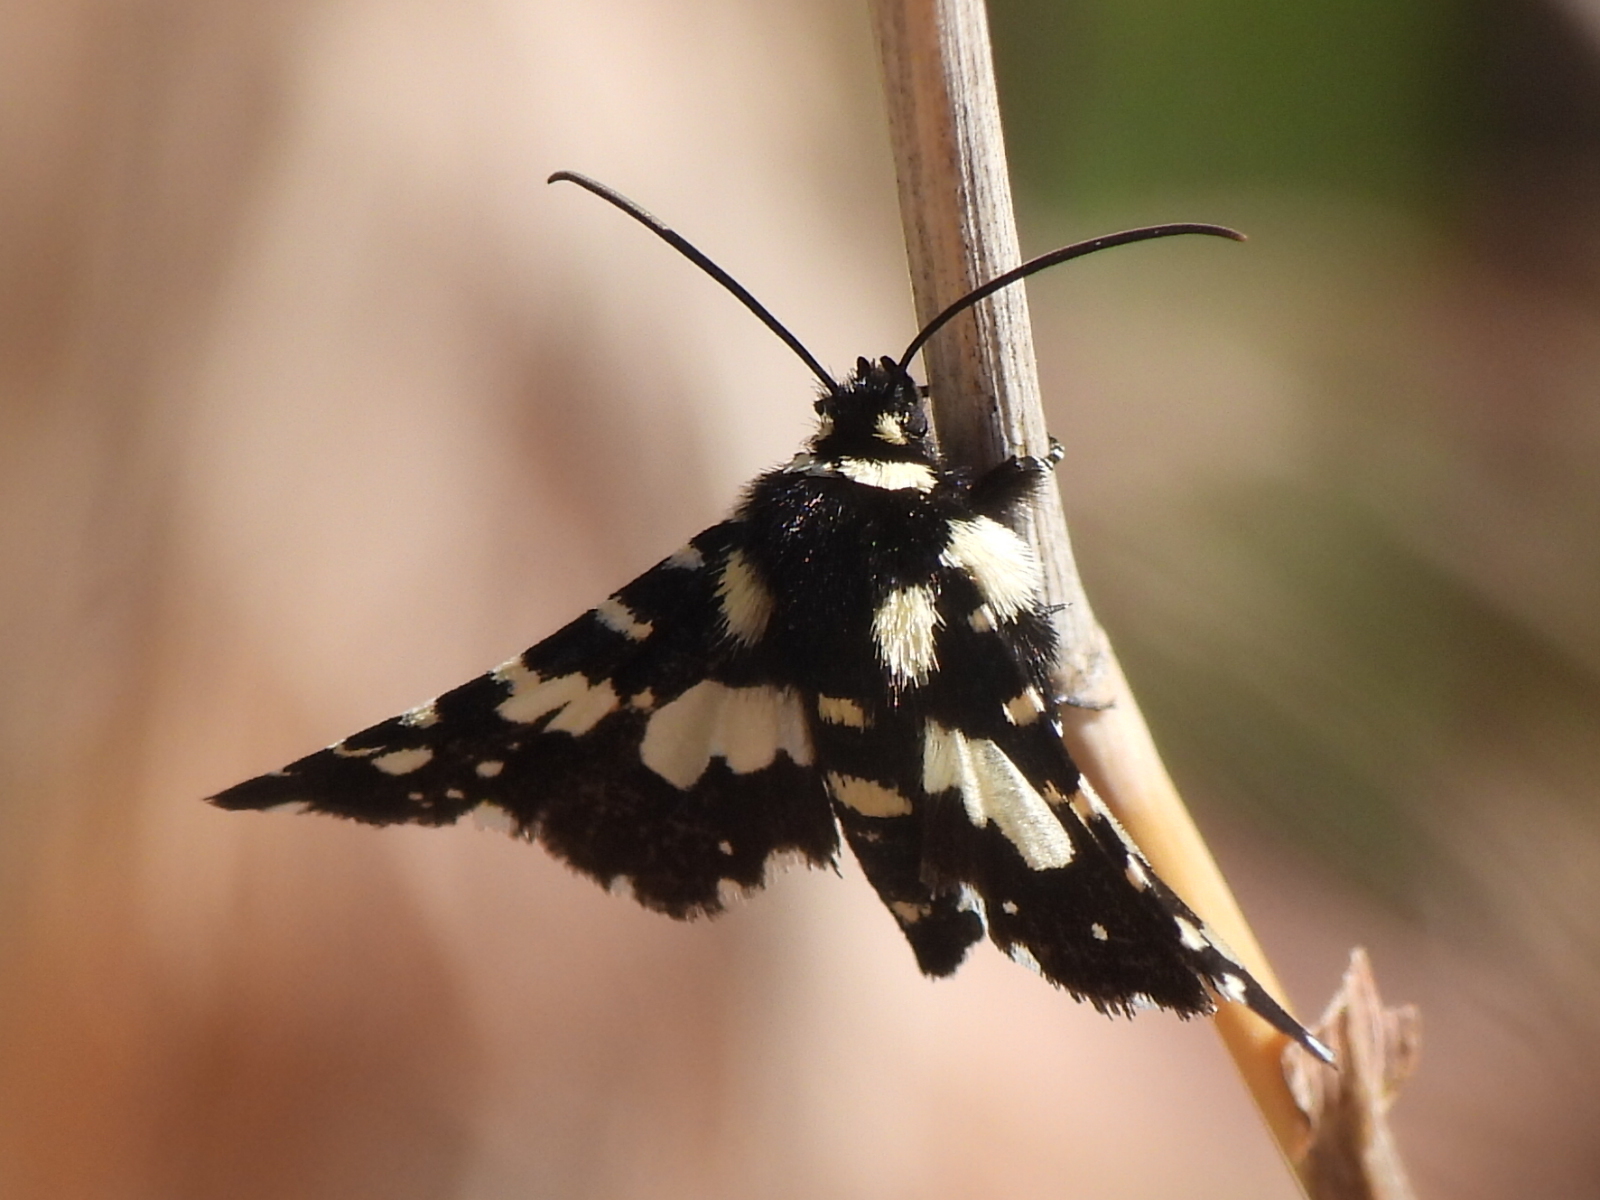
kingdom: Animalia
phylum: Arthropoda
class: Insecta
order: Lepidoptera
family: Thyrididae
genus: Pseudothyris
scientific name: Pseudothyris sepulchralis
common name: Mournful thyris moth
